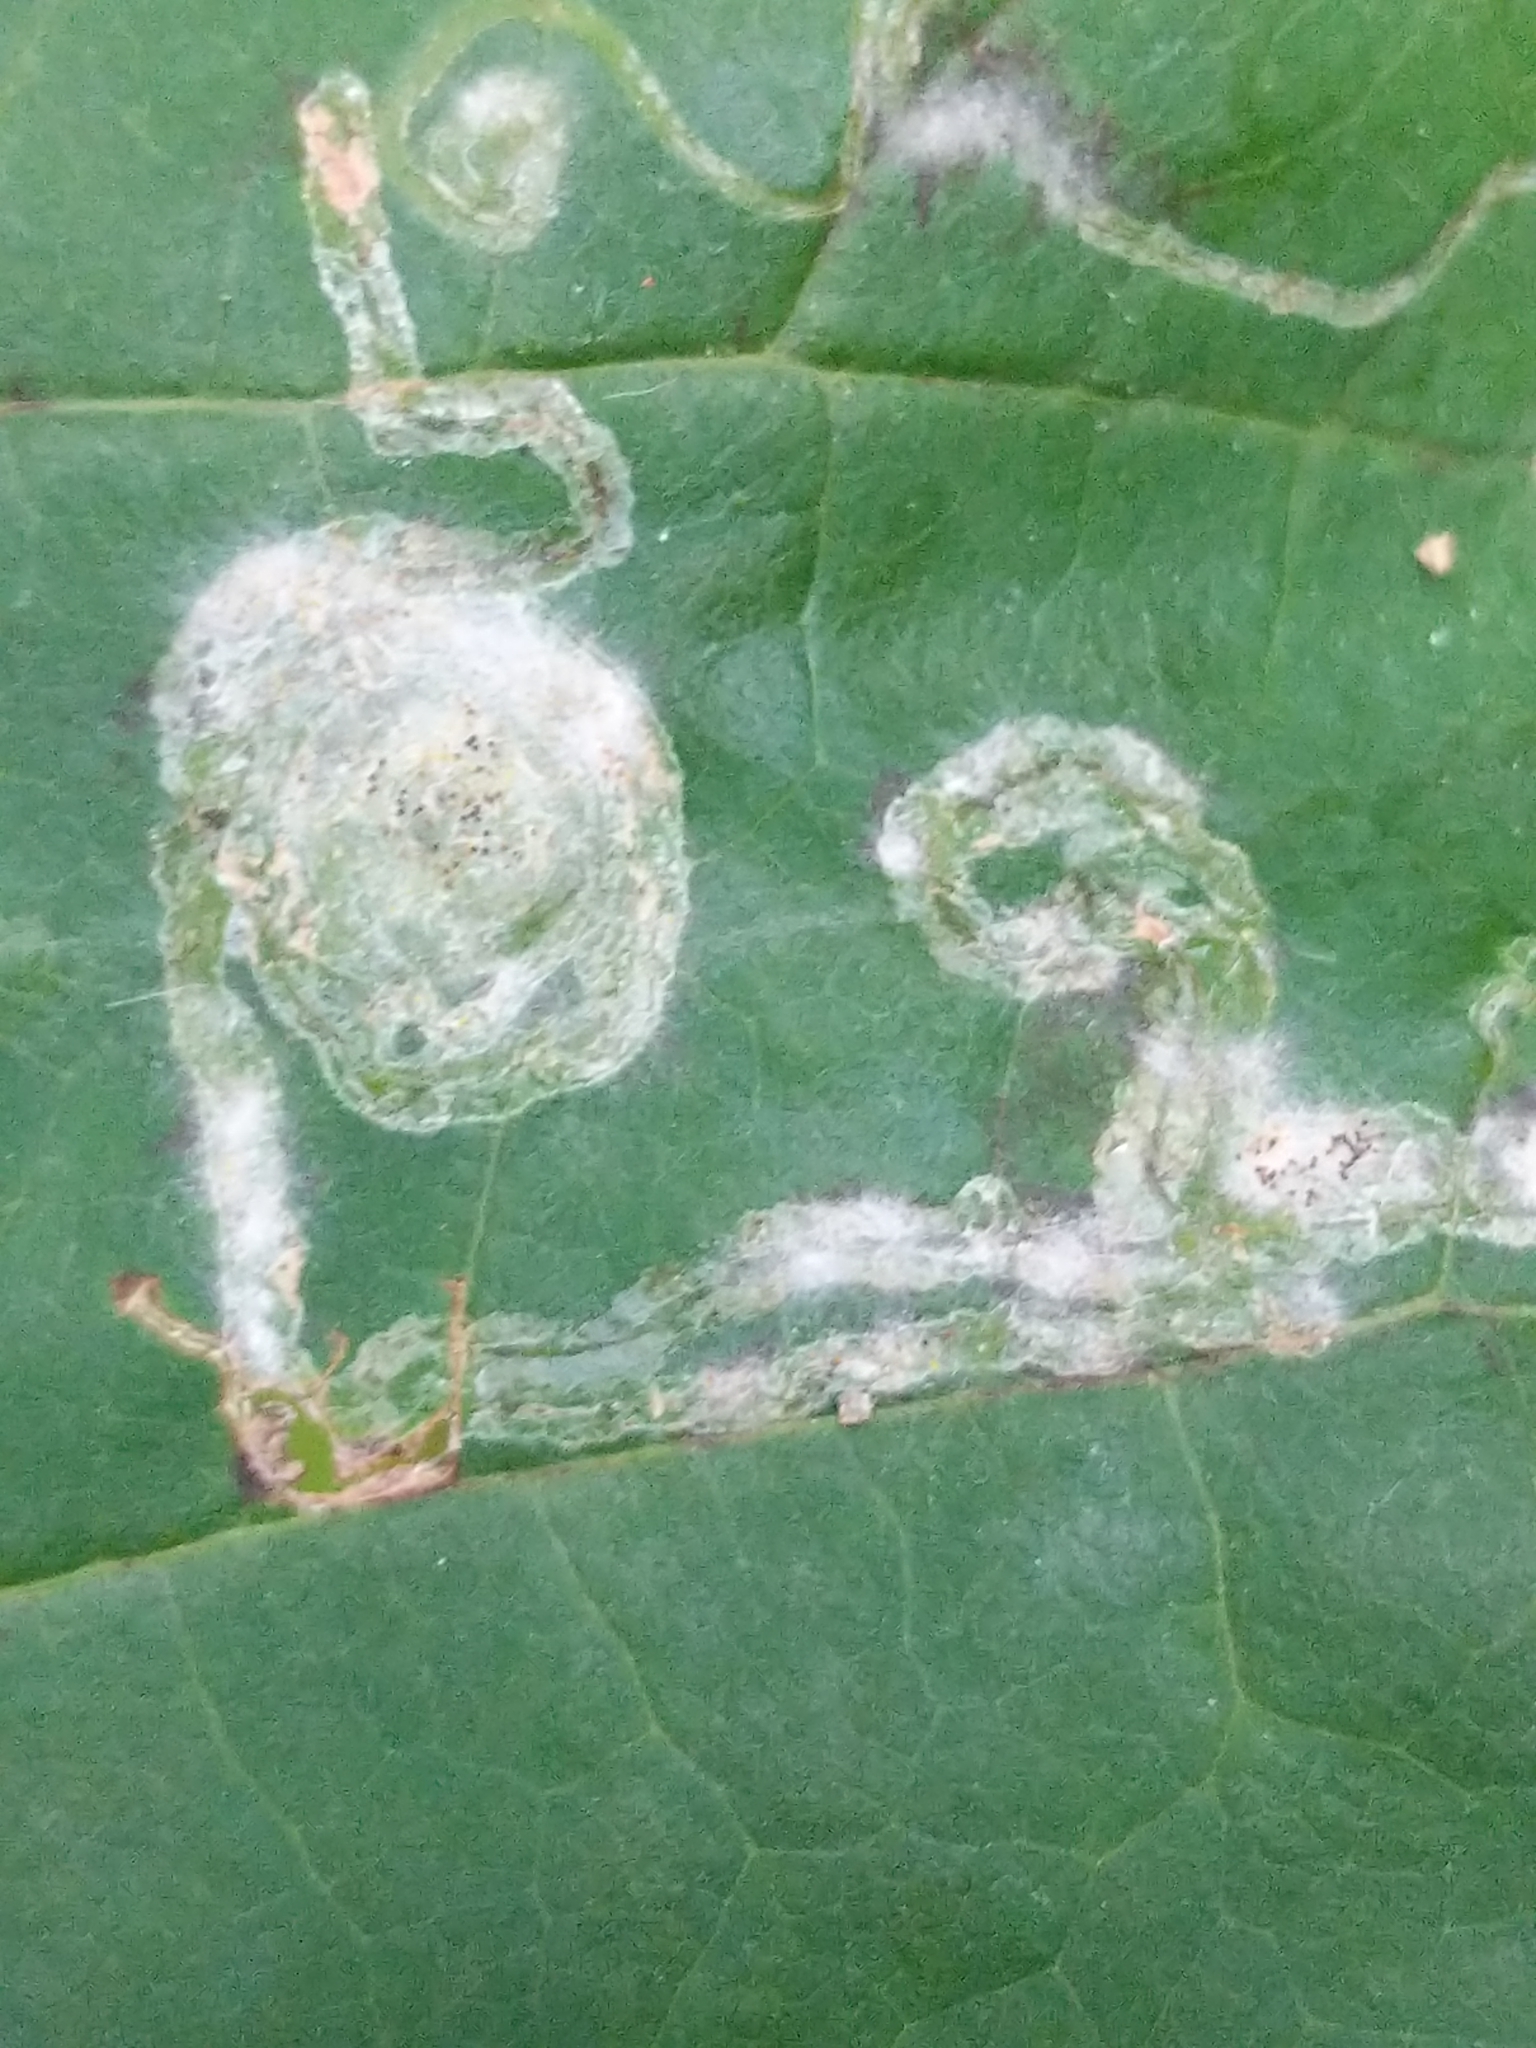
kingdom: Animalia
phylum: Arthropoda
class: Insecta
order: Lepidoptera
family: Gracillariidae
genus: Phyllocnistis
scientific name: Phyllocnistis liriodendronella
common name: Tulip tree leaf miner
